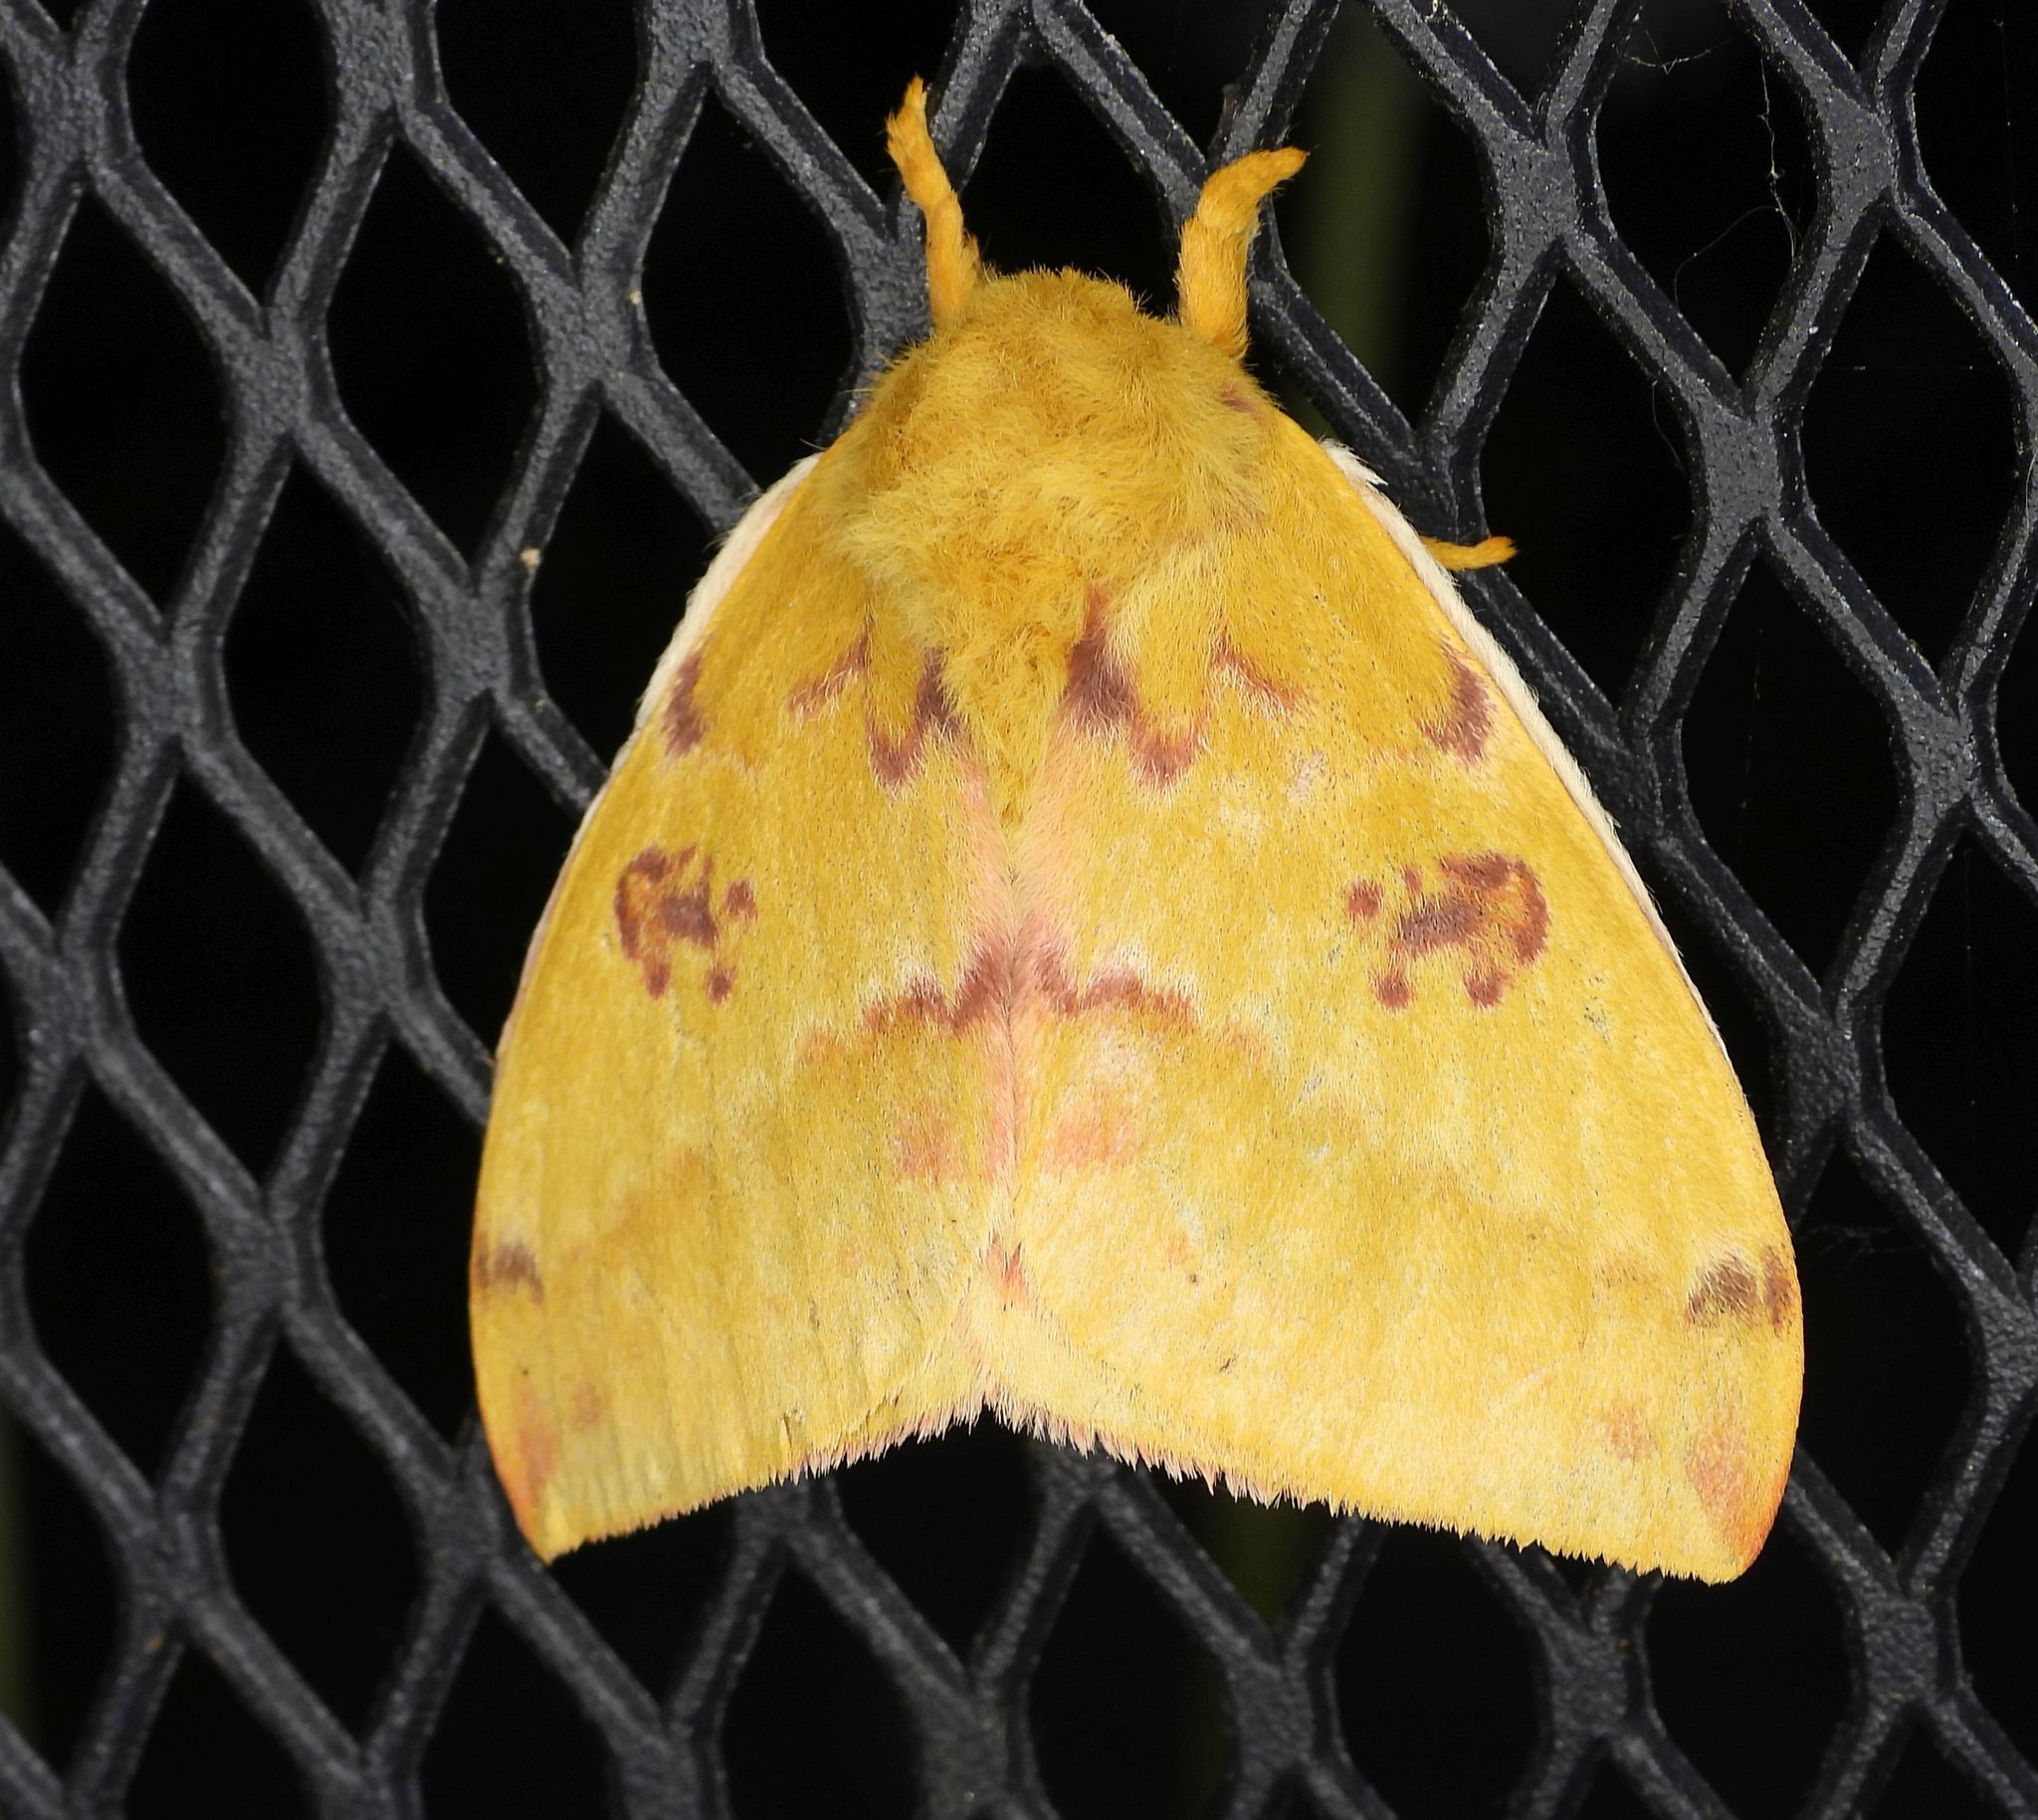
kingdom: Animalia
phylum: Arthropoda
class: Insecta
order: Lepidoptera
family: Saturniidae
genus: Automeris
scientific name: Automeris io
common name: Io moth
